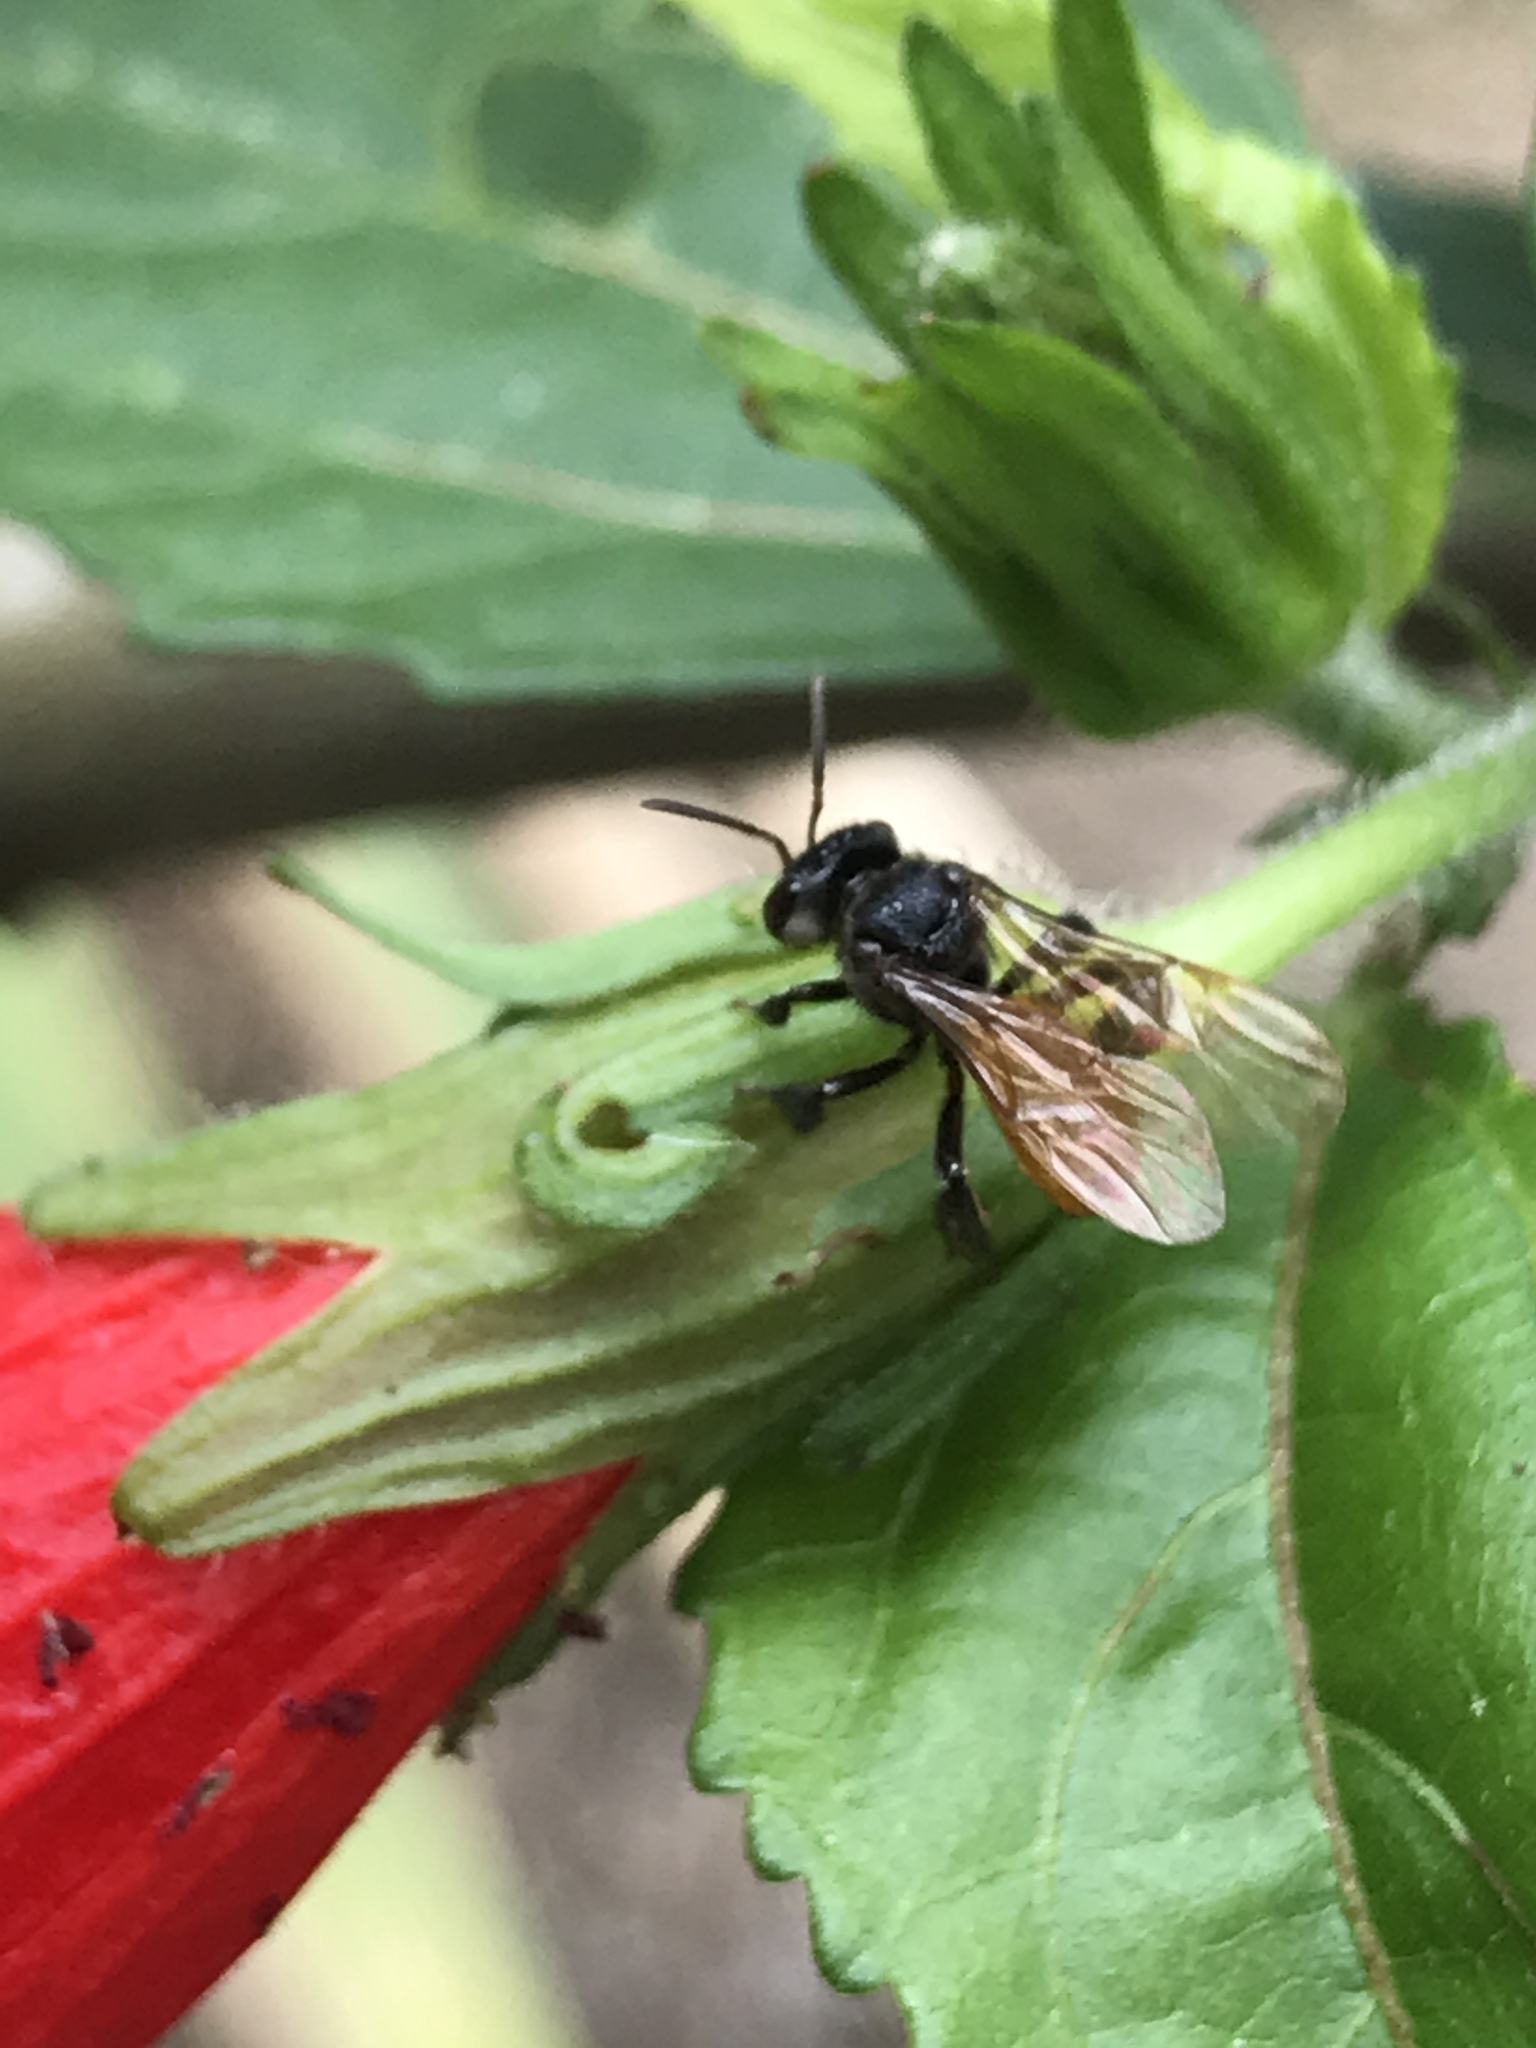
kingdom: Animalia
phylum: Arthropoda
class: Insecta
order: Hymenoptera
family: Apidae
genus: Trigona
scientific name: Trigona fulviventris
